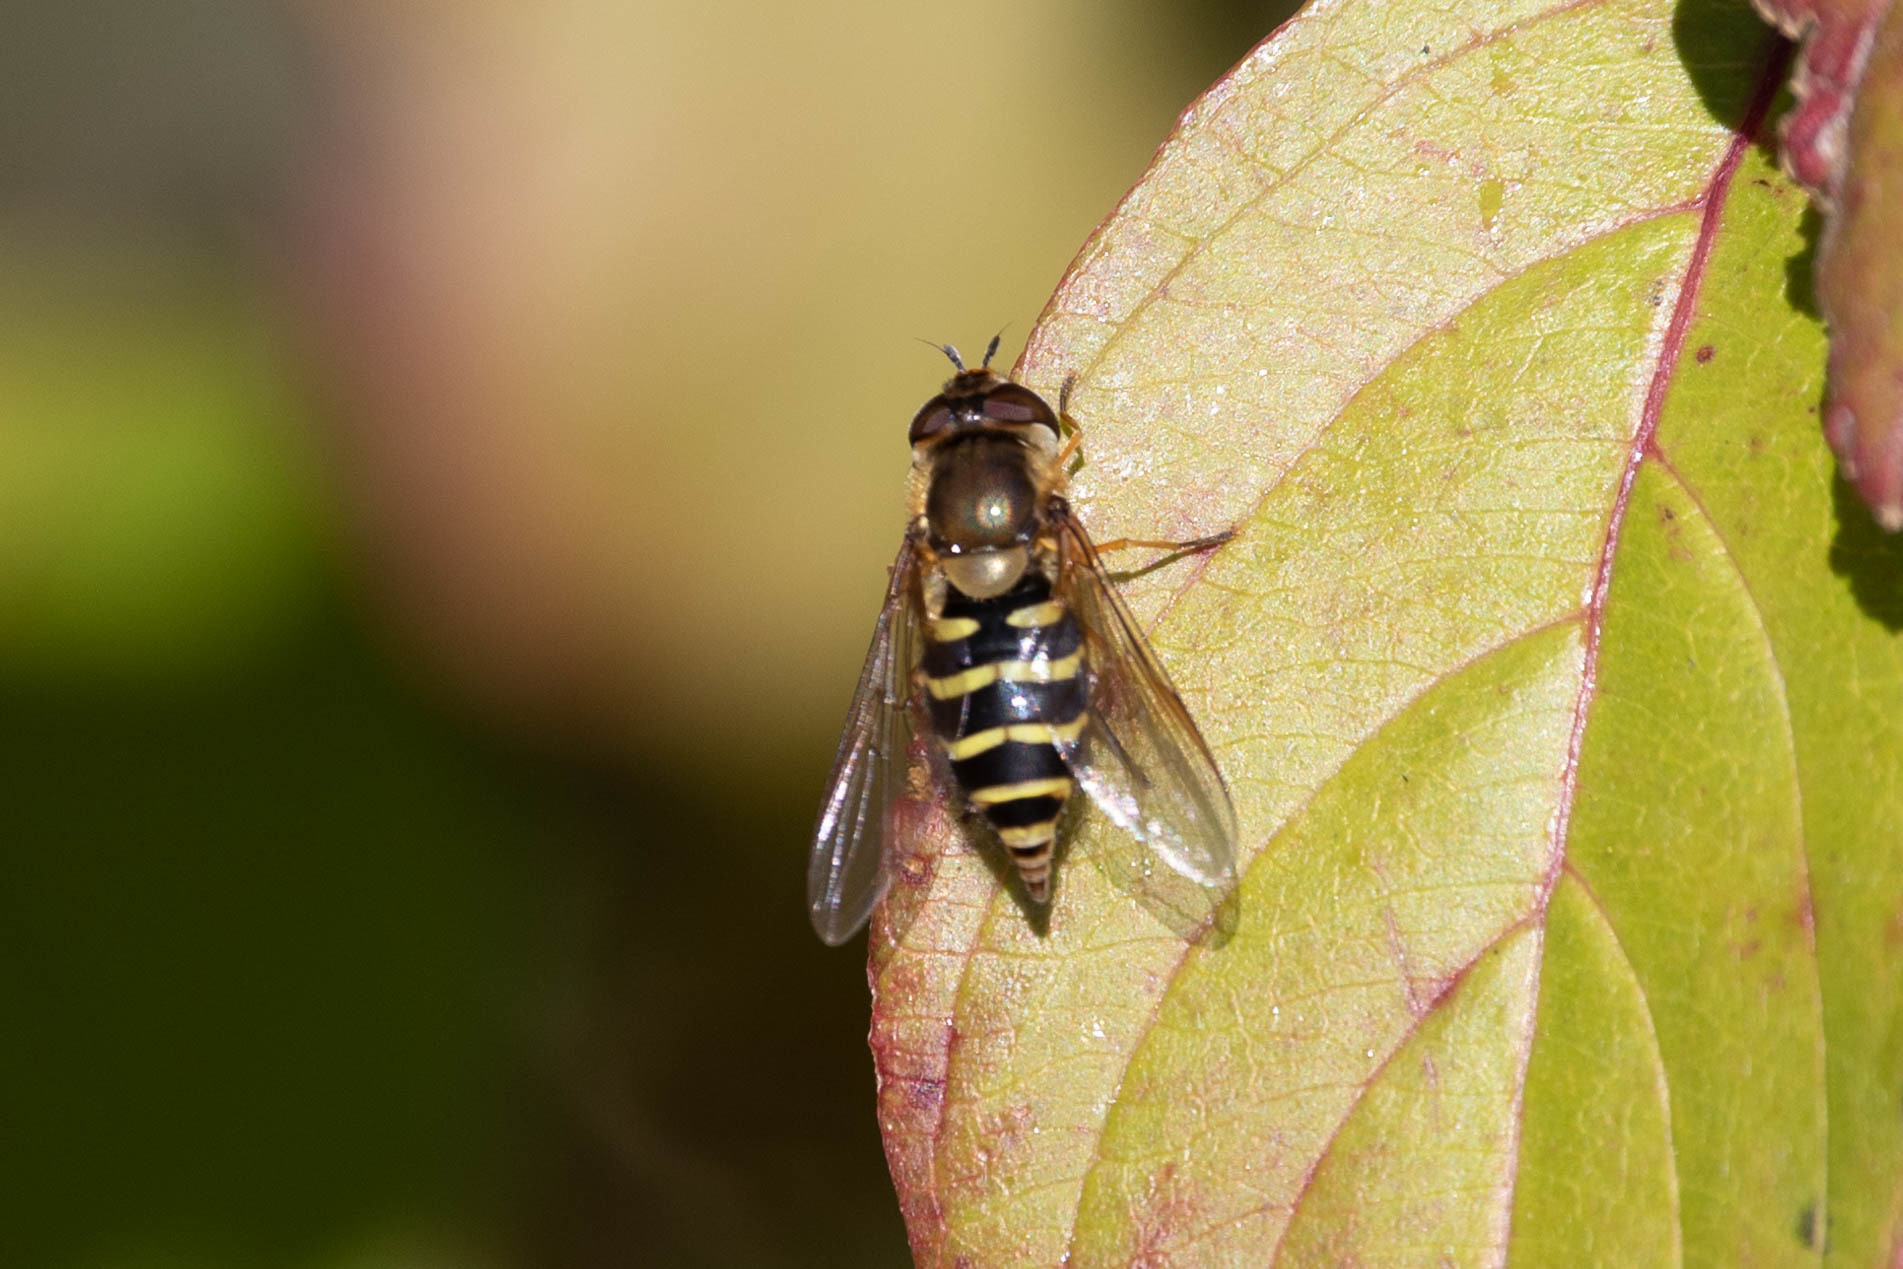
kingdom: Animalia
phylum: Arthropoda
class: Insecta
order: Diptera
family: Syrphidae
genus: Syrphus
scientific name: Syrphus
